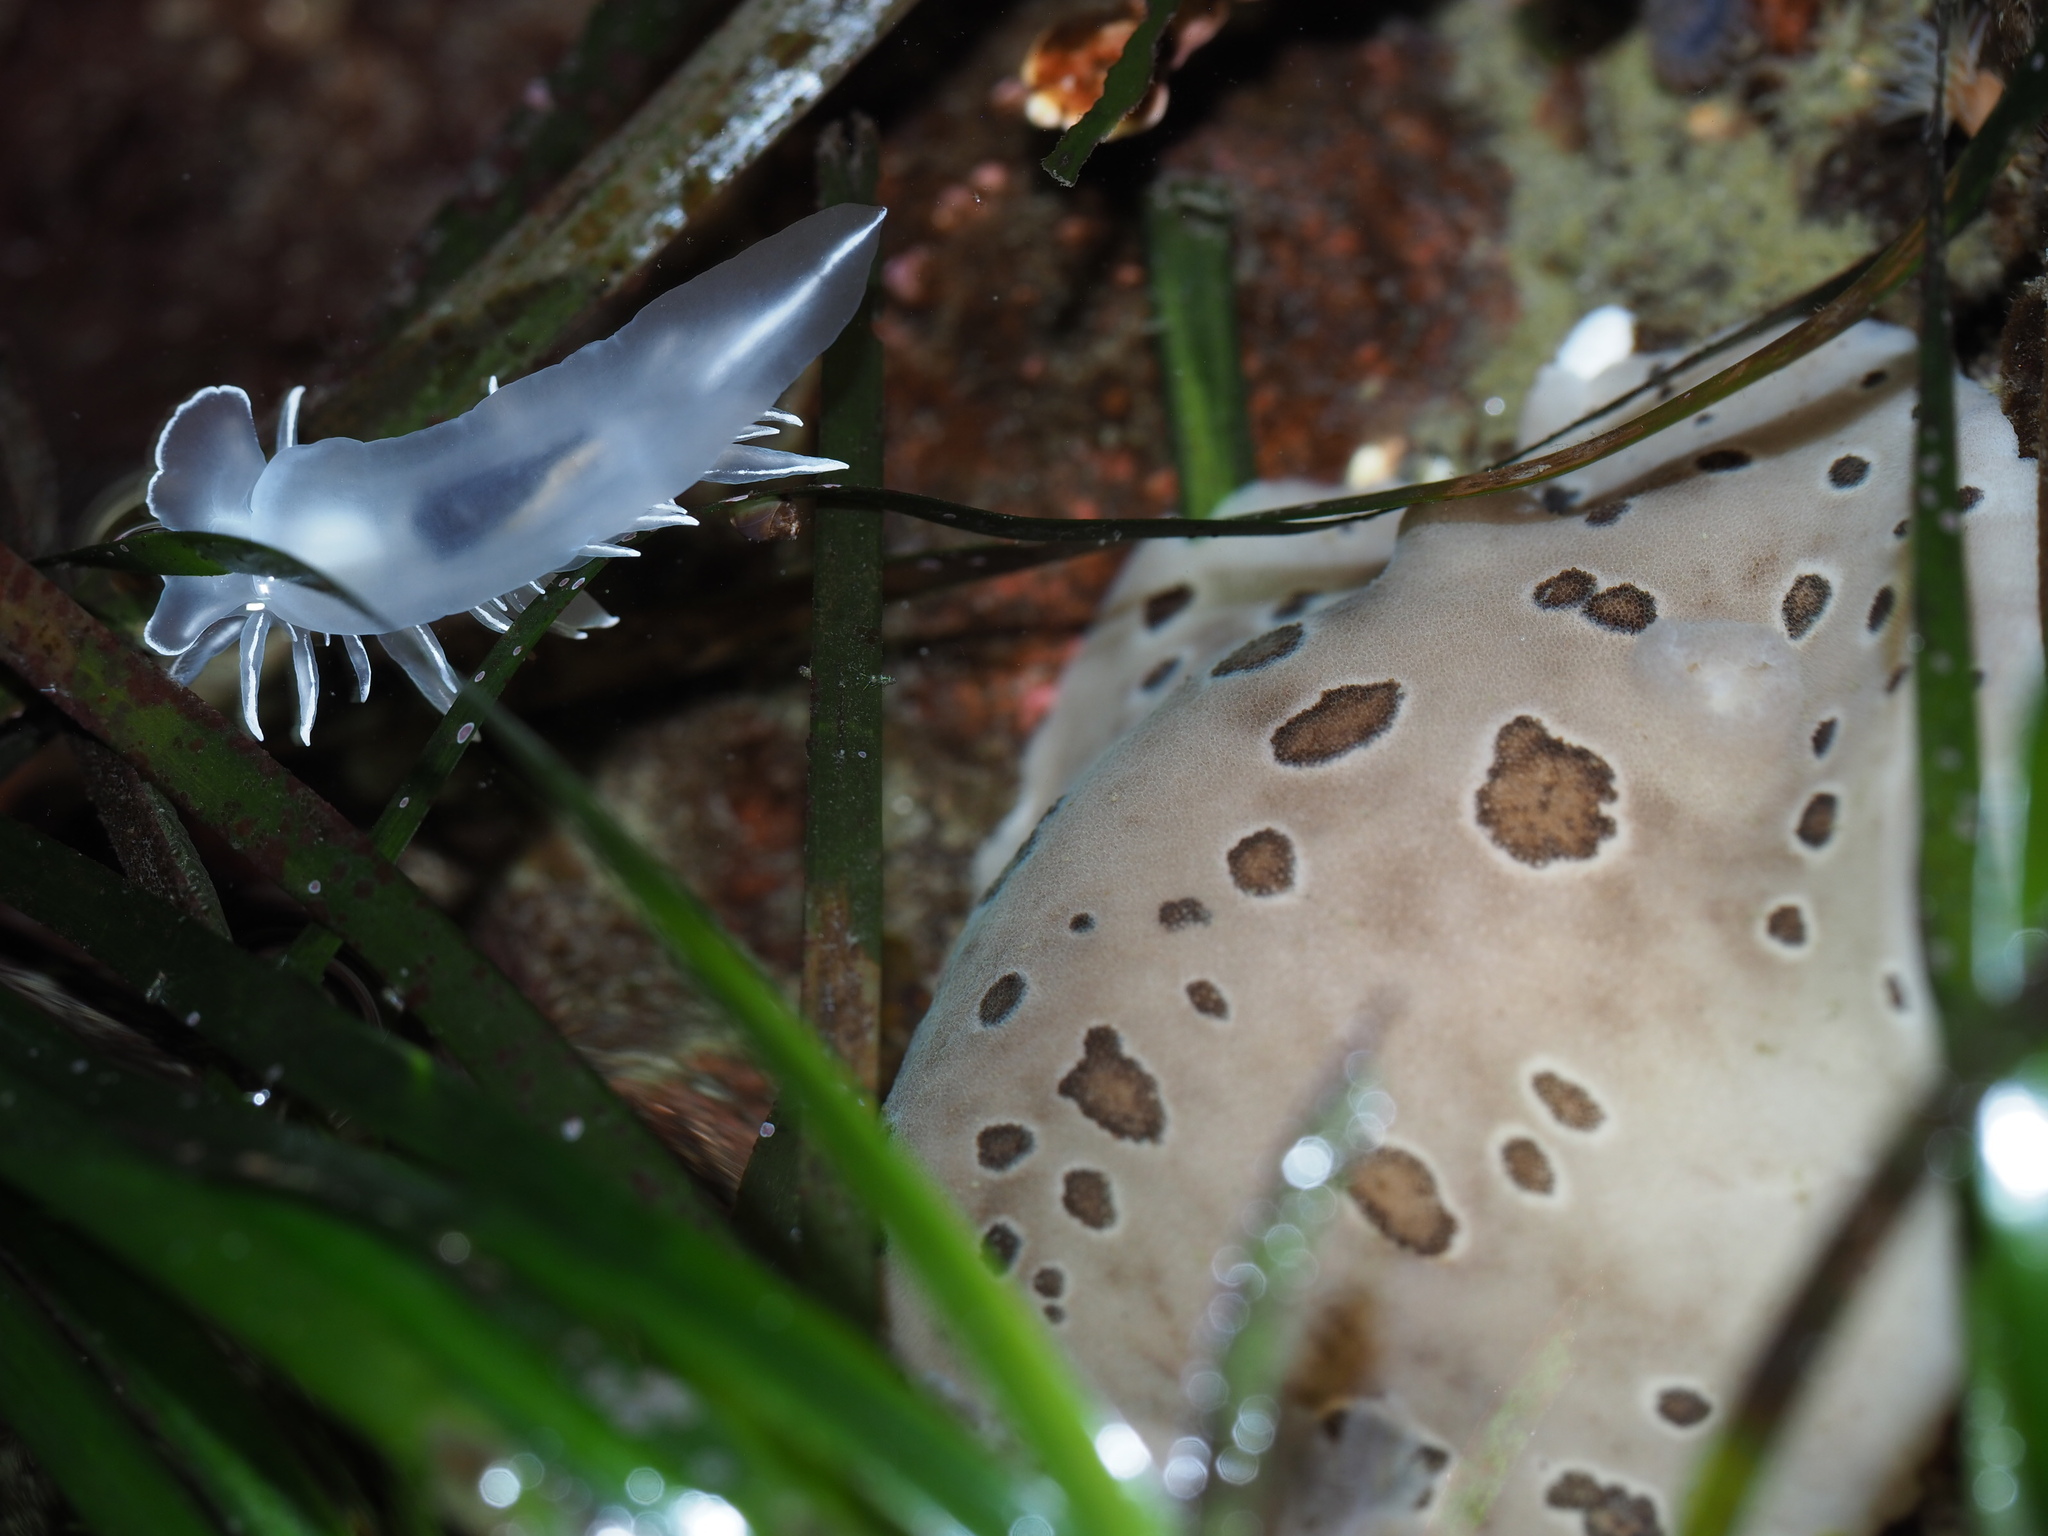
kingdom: Animalia
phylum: Mollusca
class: Gastropoda
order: Nudibranchia
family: Discodorididae
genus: Diaulula
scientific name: Diaulula odonoghuei
